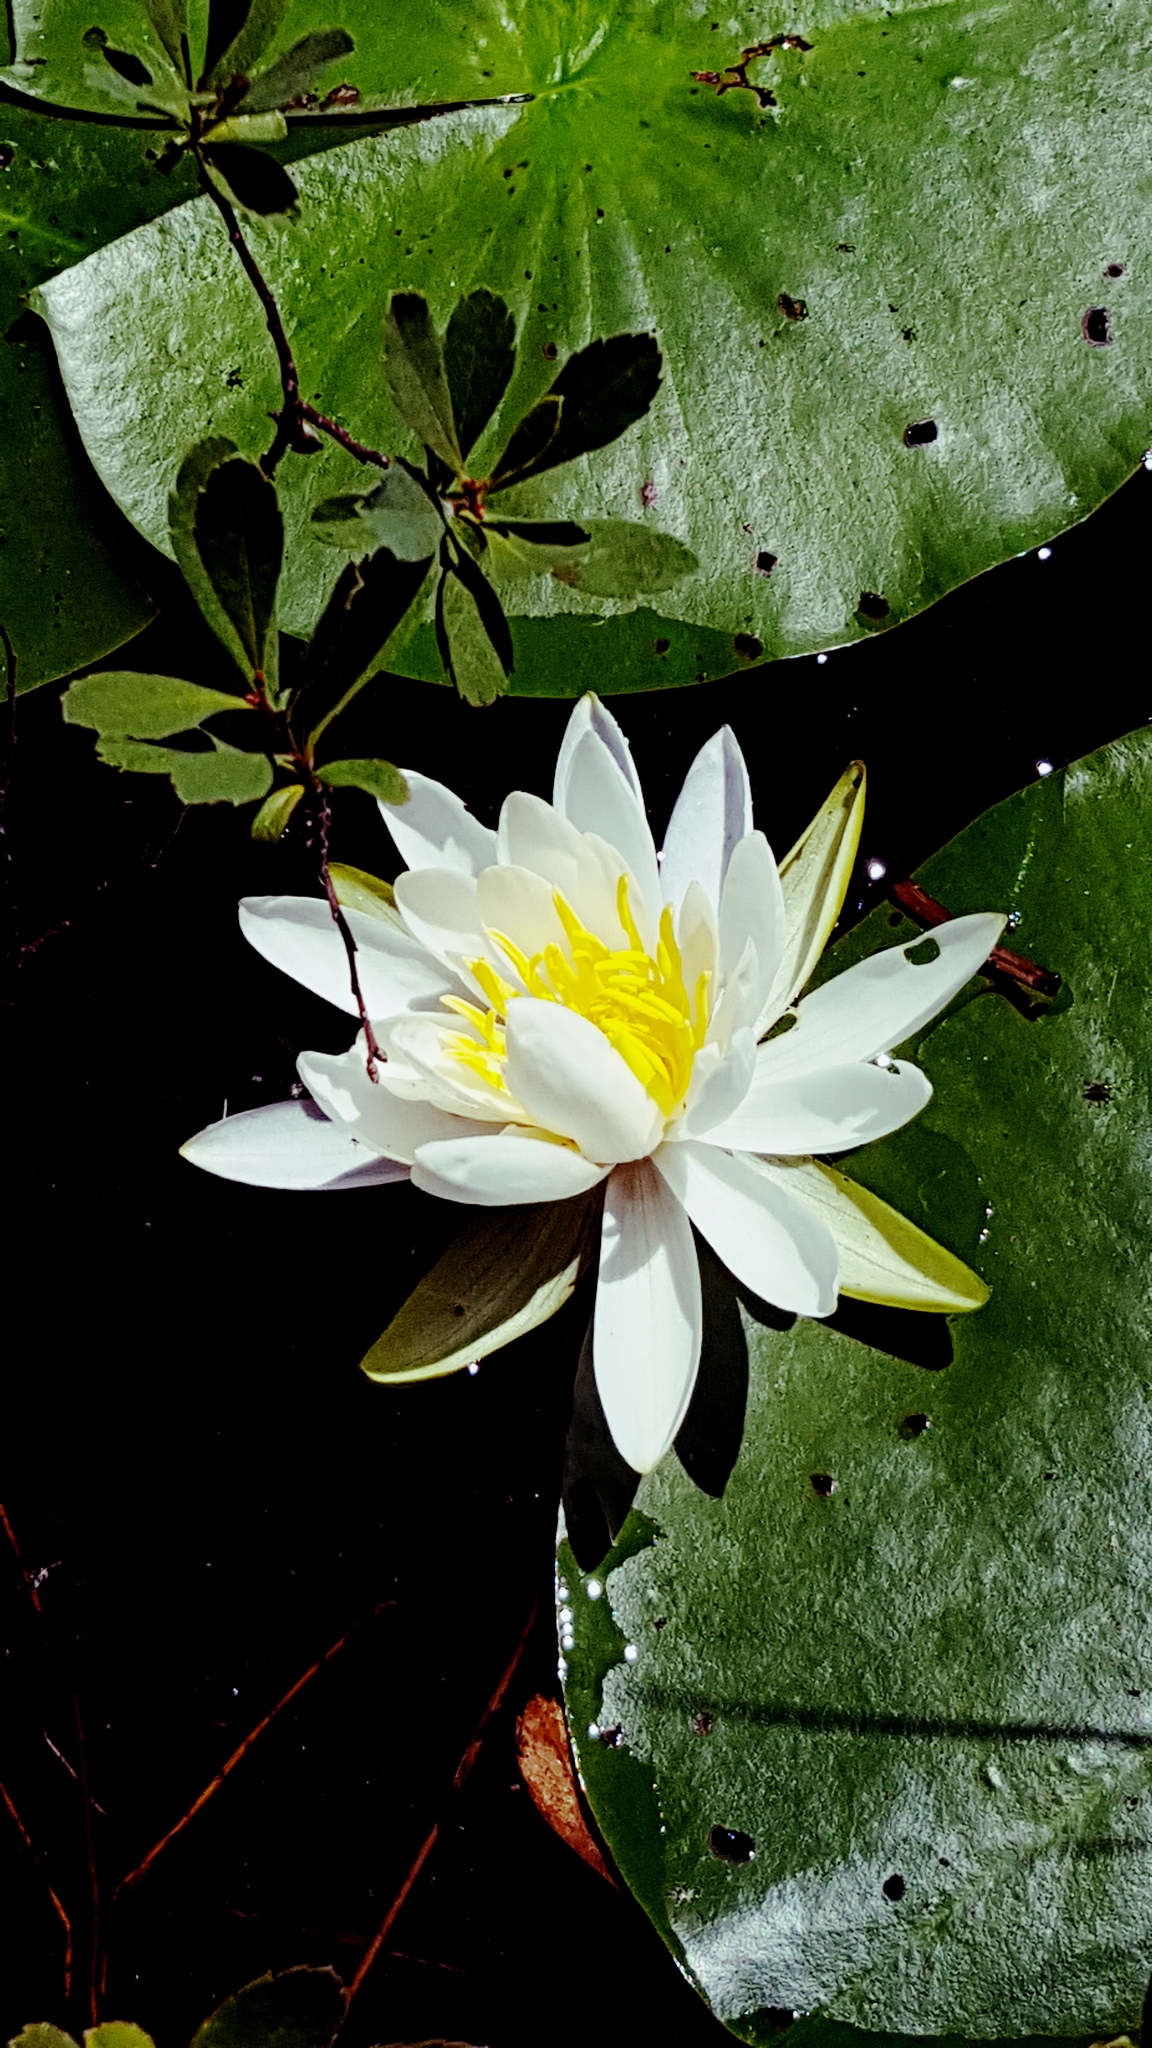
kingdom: Plantae
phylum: Tracheophyta
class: Magnoliopsida
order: Nymphaeales
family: Nymphaeaceae
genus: Nymphaea
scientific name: Nymphaea odorata
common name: Fragrant water-lily
